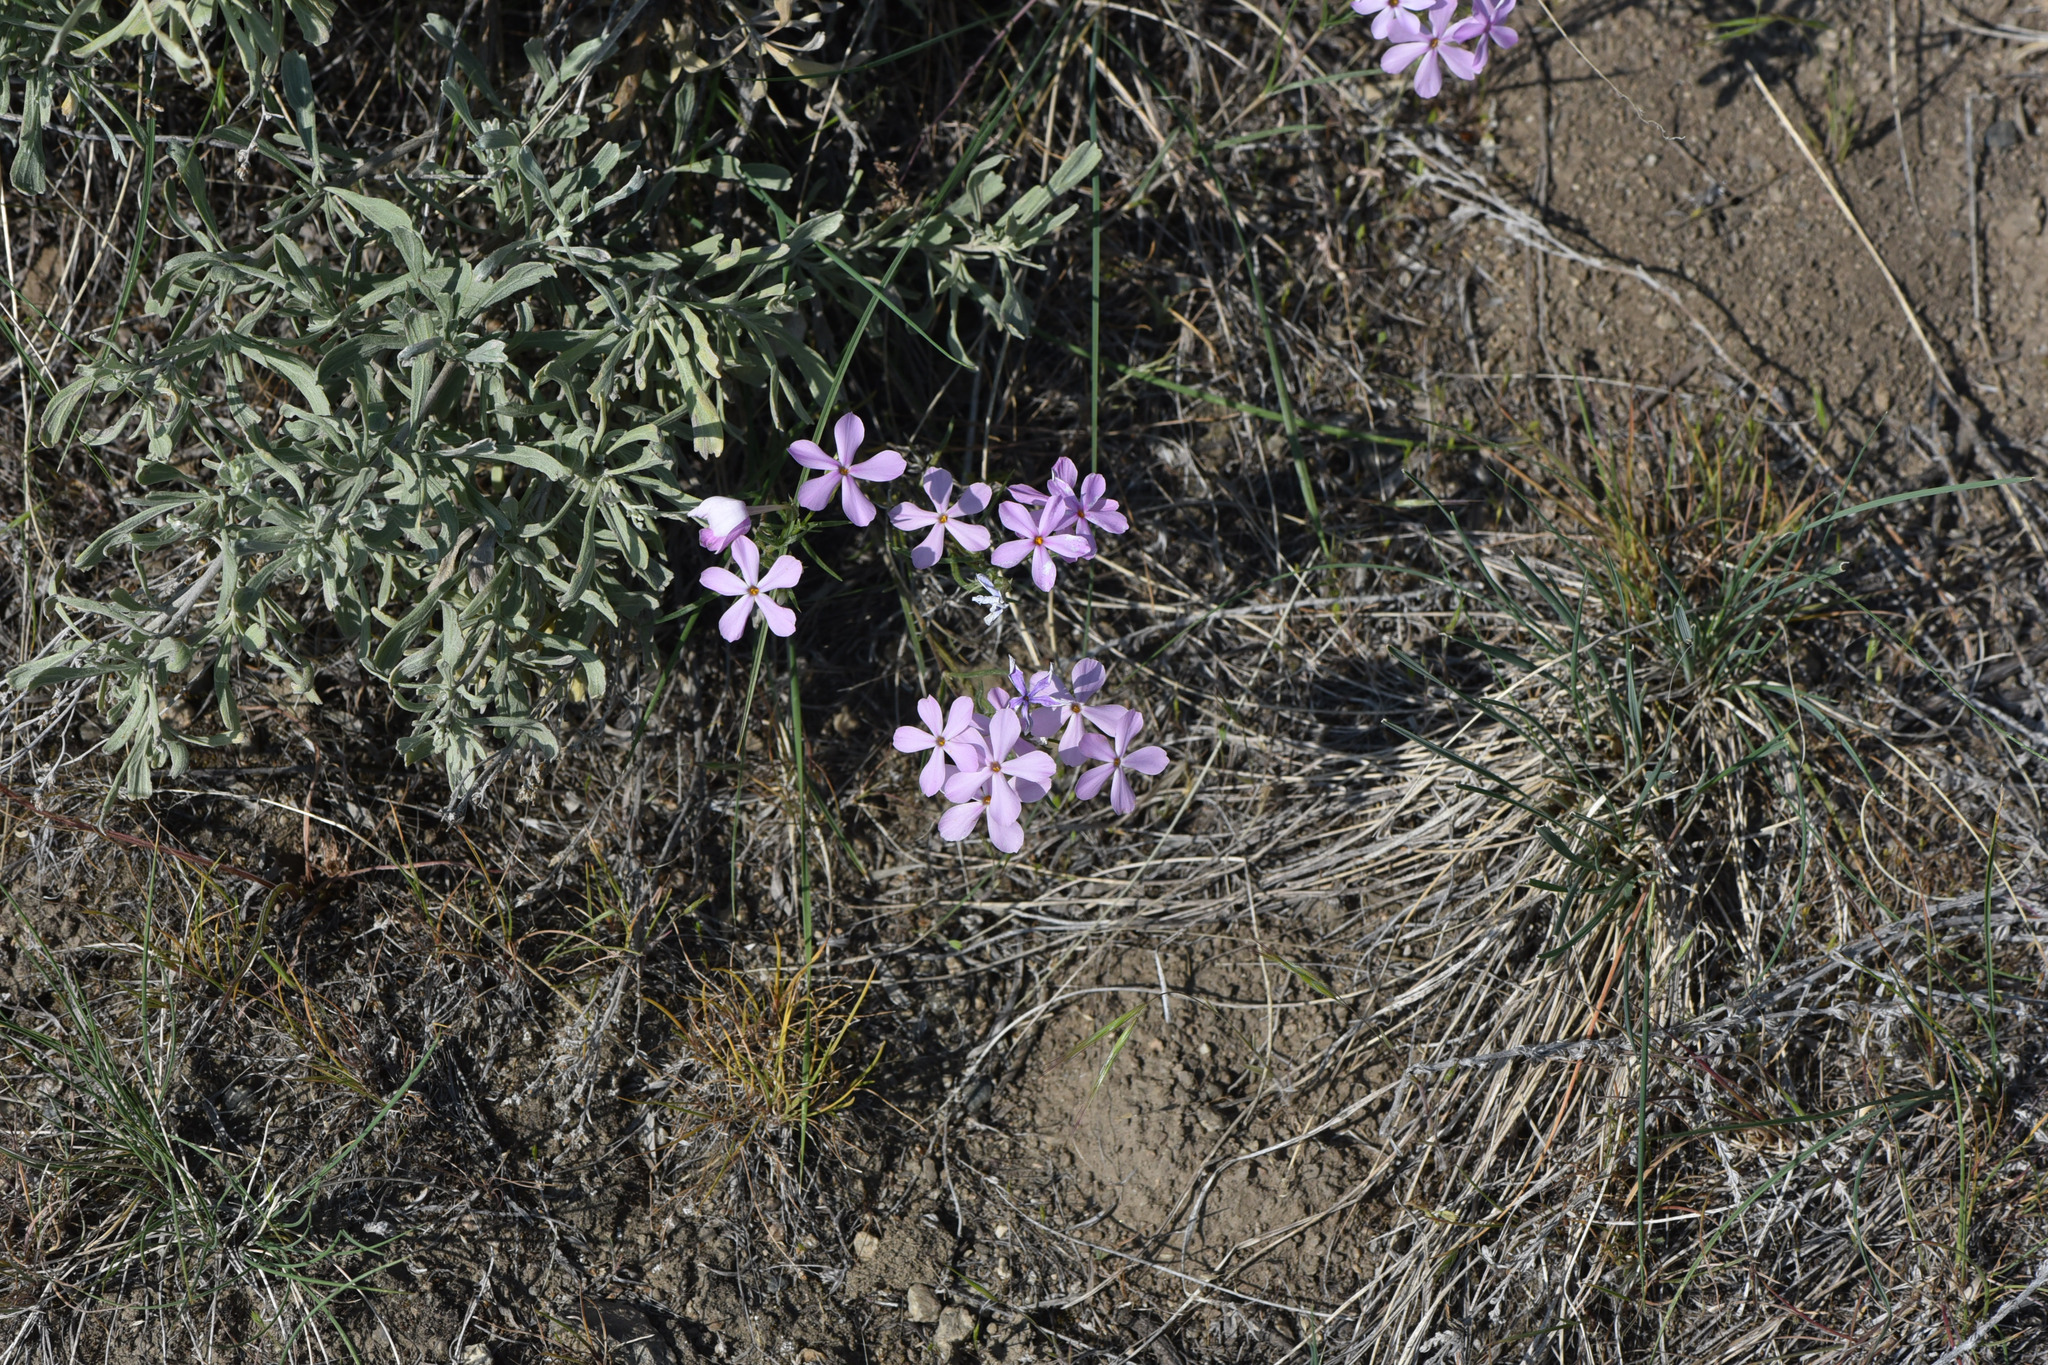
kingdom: Plantae
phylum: Tracheophyta
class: Magnoliopsida
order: Ericales
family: Polemoniaceae
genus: Phlox
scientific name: Phlox longifolia
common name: Longleaf phlox
